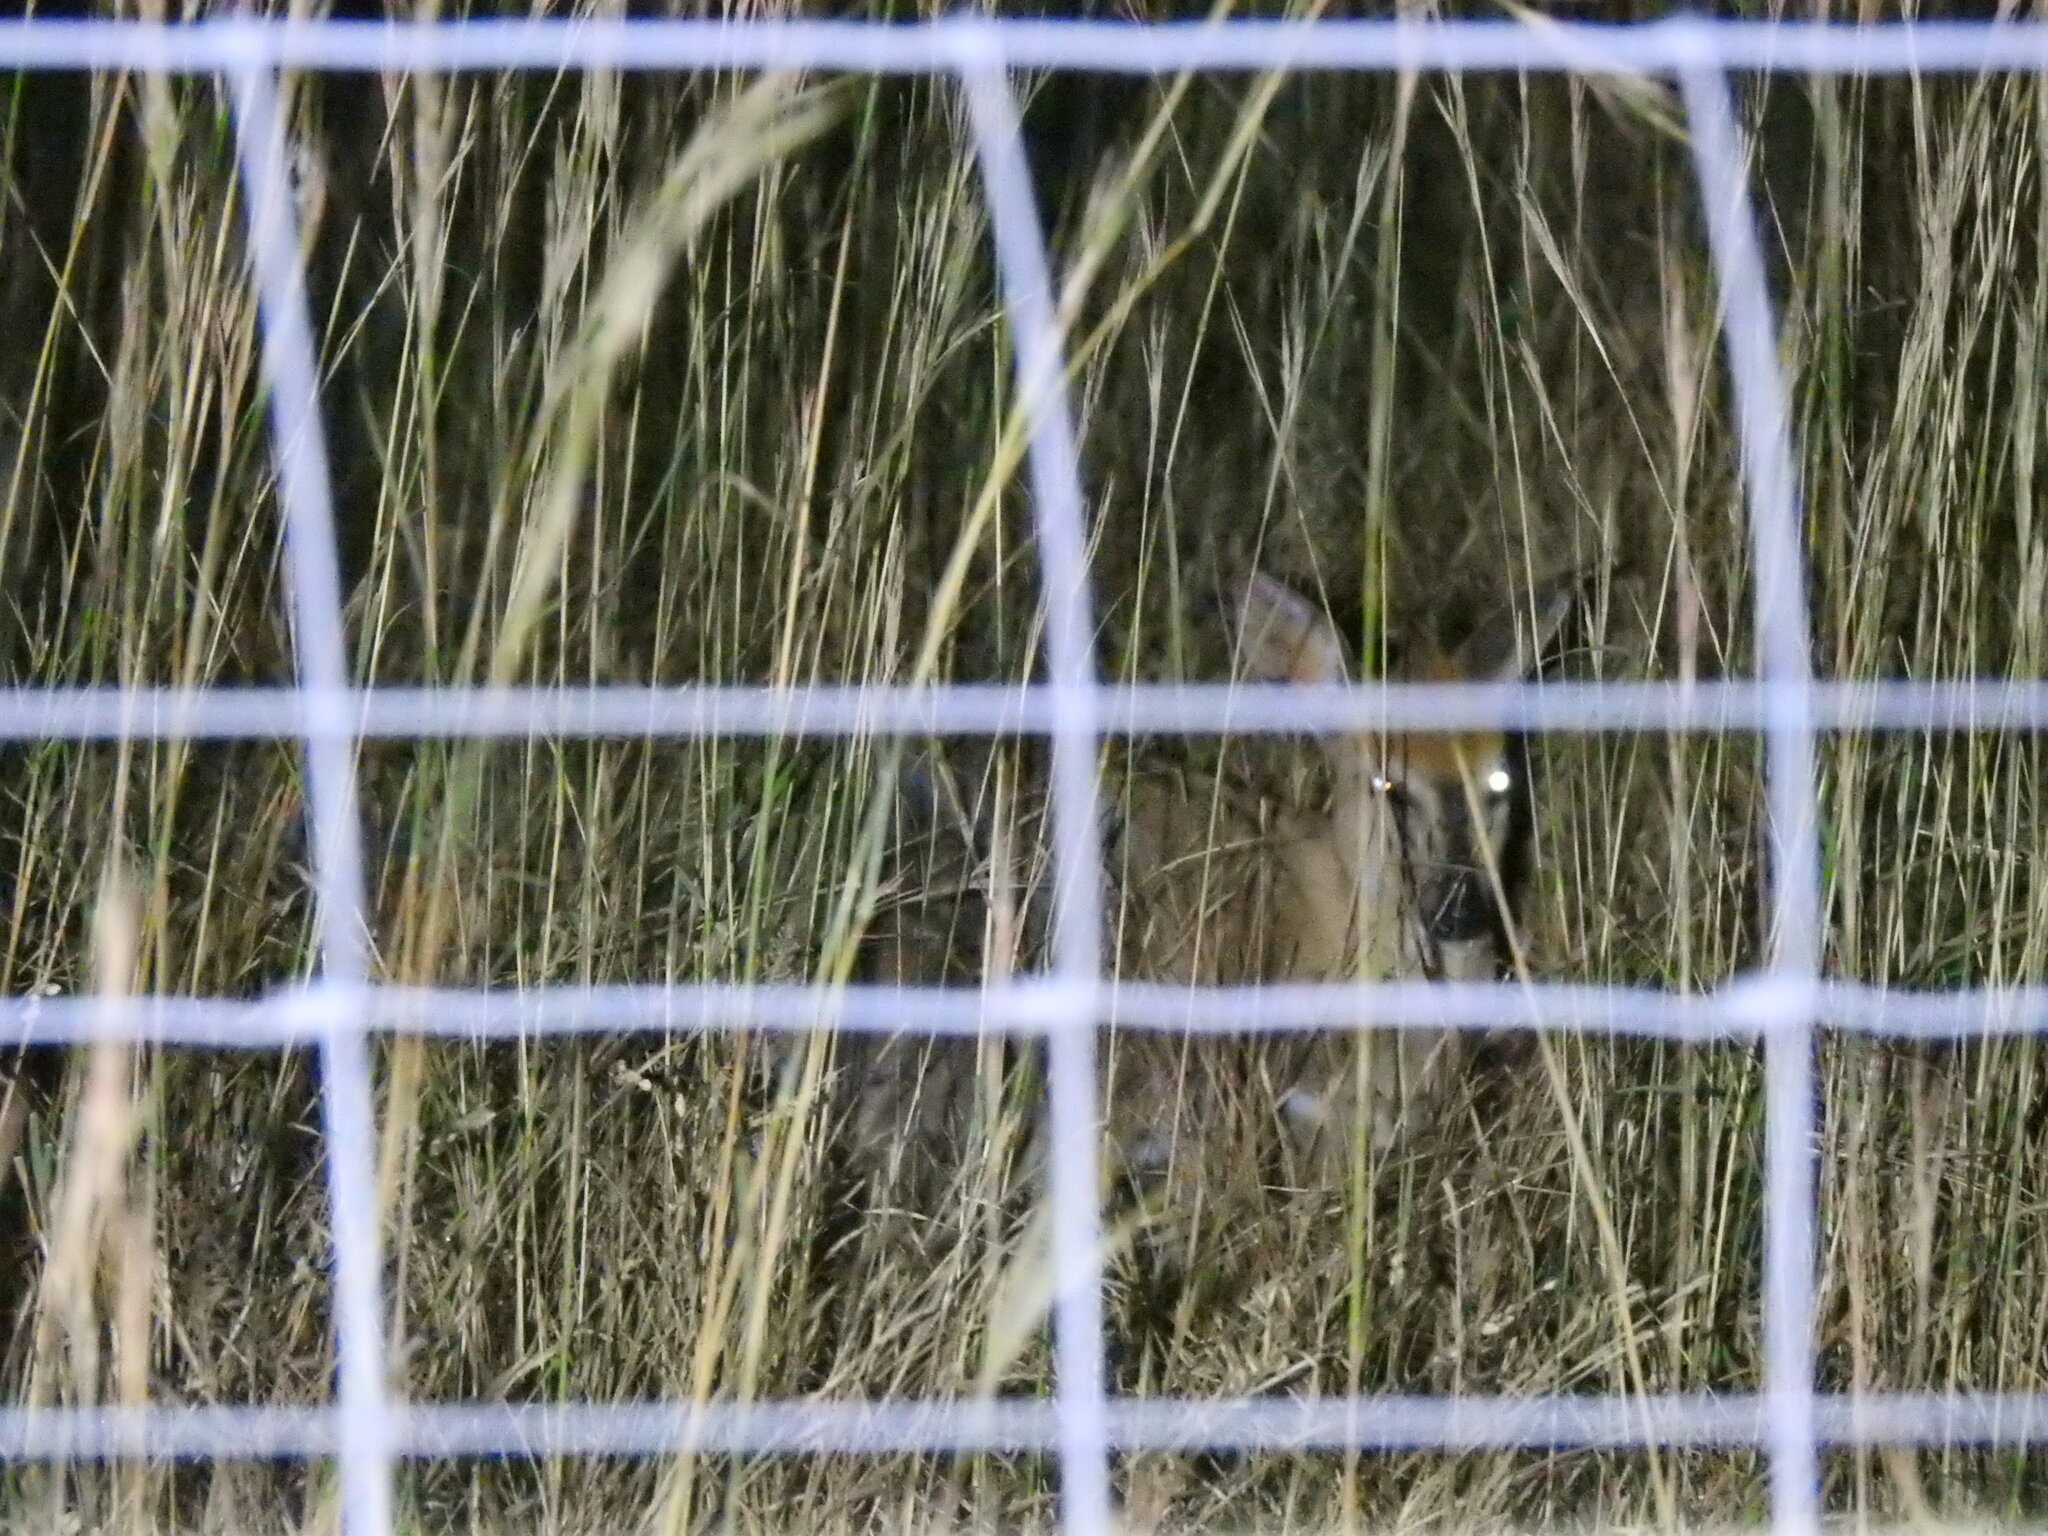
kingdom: Animalia
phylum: Chordata
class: Mammalia
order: Artiodactyla
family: Bovidae
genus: Sylvicapra
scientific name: Sylvicapra grimmia
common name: Bush duiker
